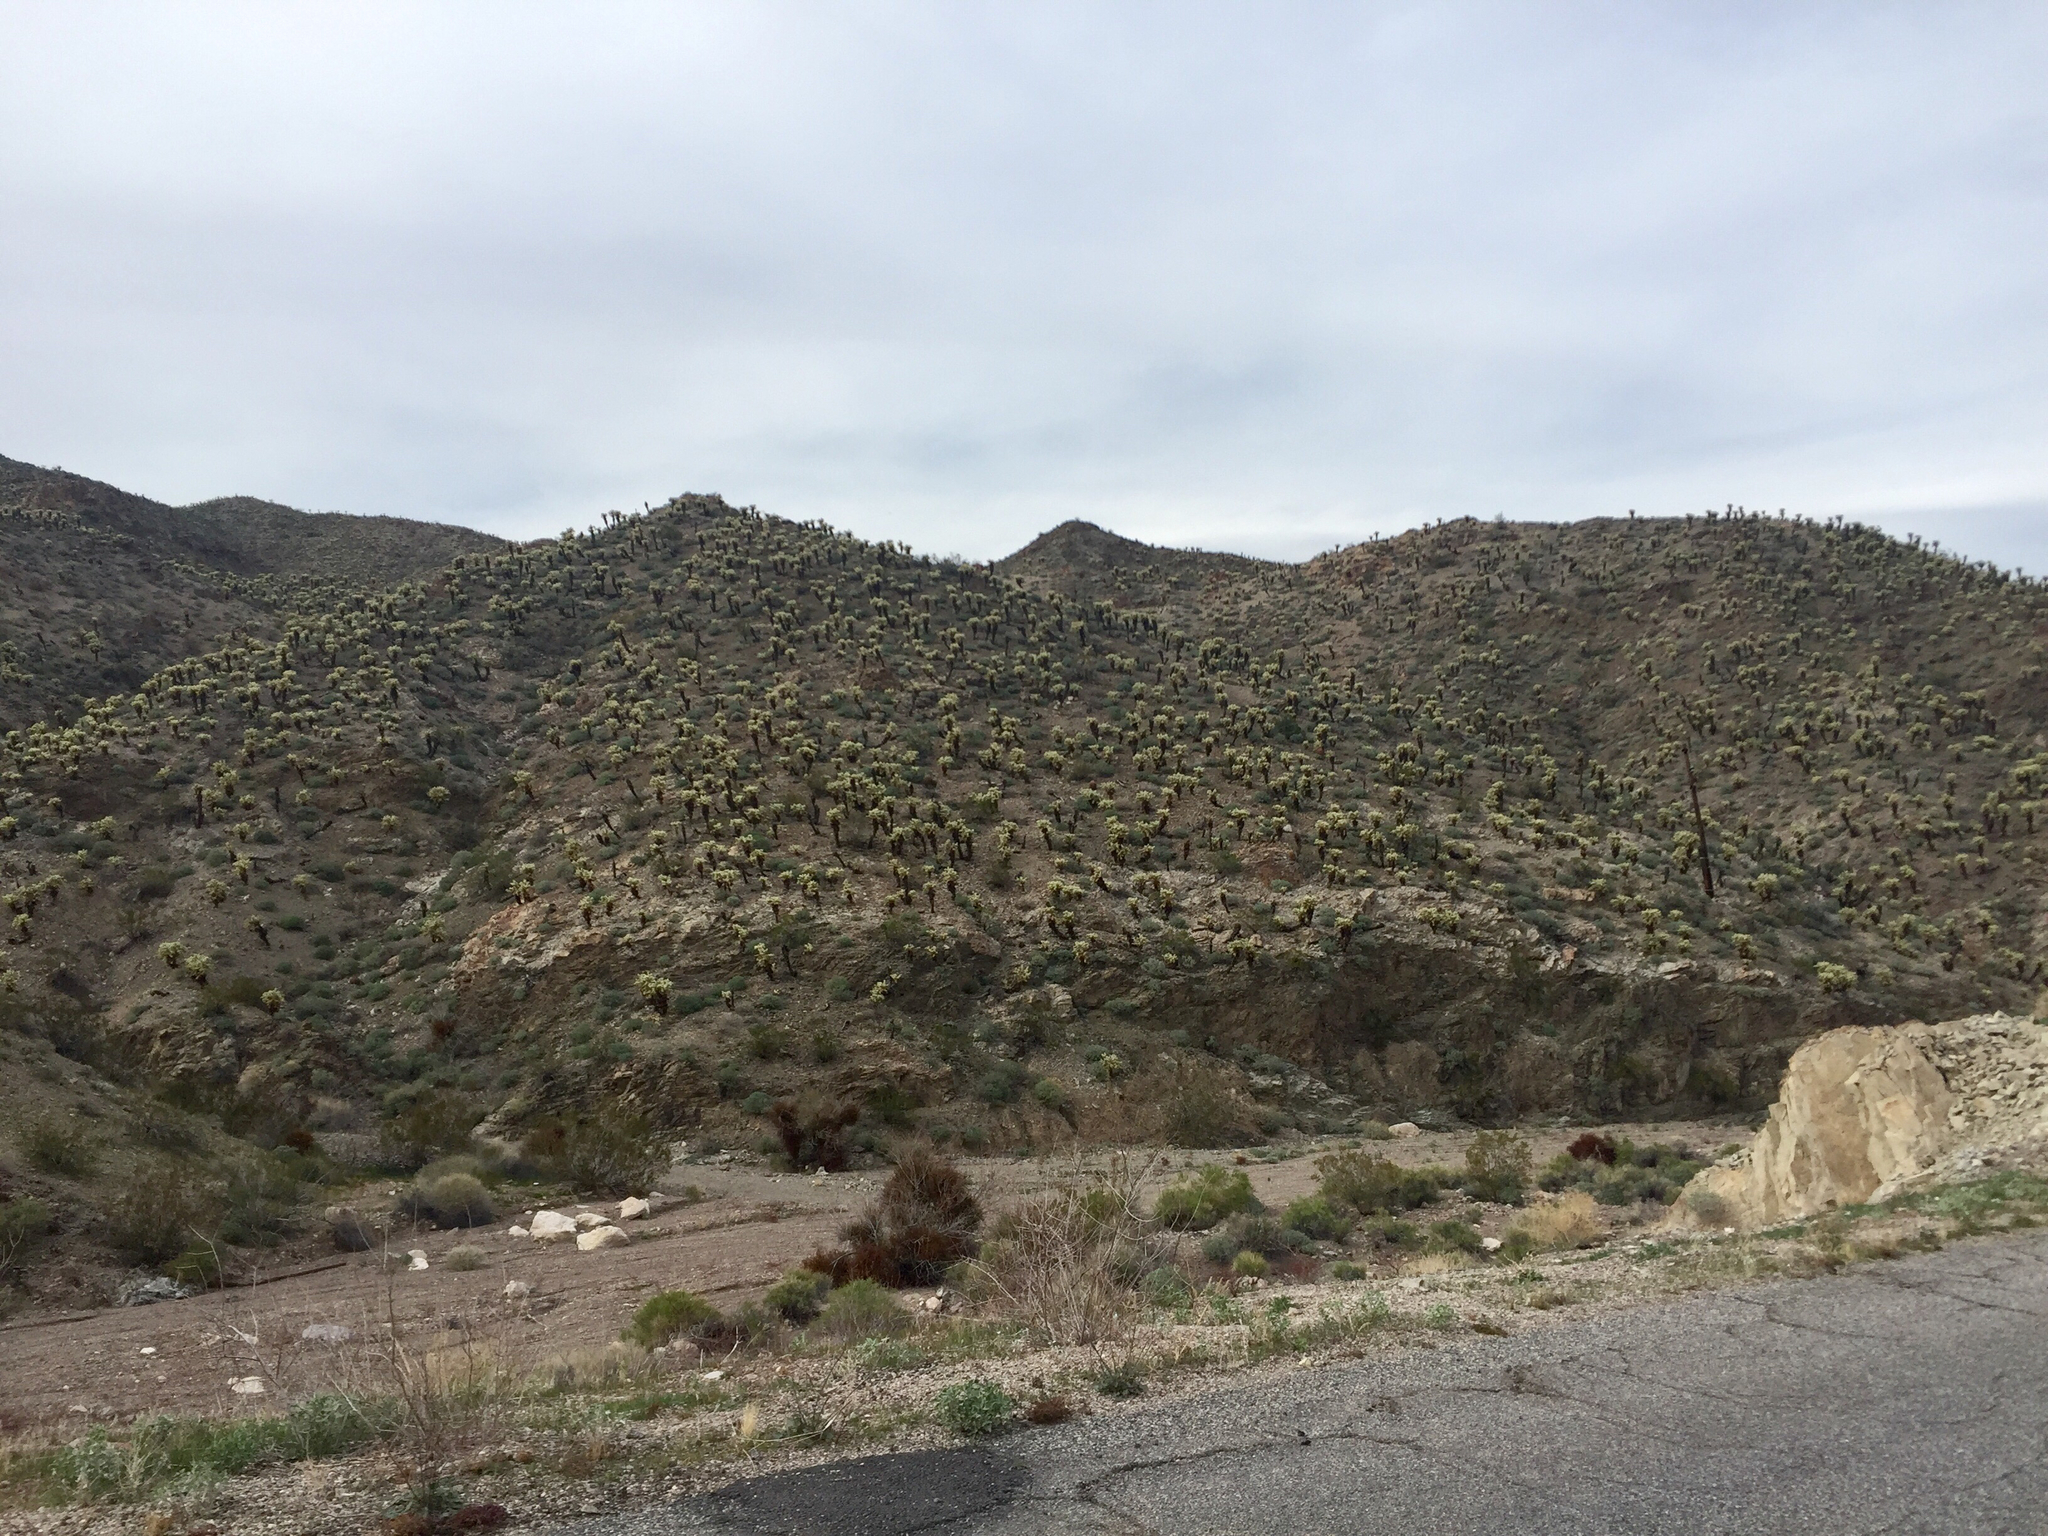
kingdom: Plantae
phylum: Tracheophyta
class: Magnoliopsida
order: Caryophyllales
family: Cactaceae
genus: Cylindropuntia
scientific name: Cylindropuntia fosbergii
